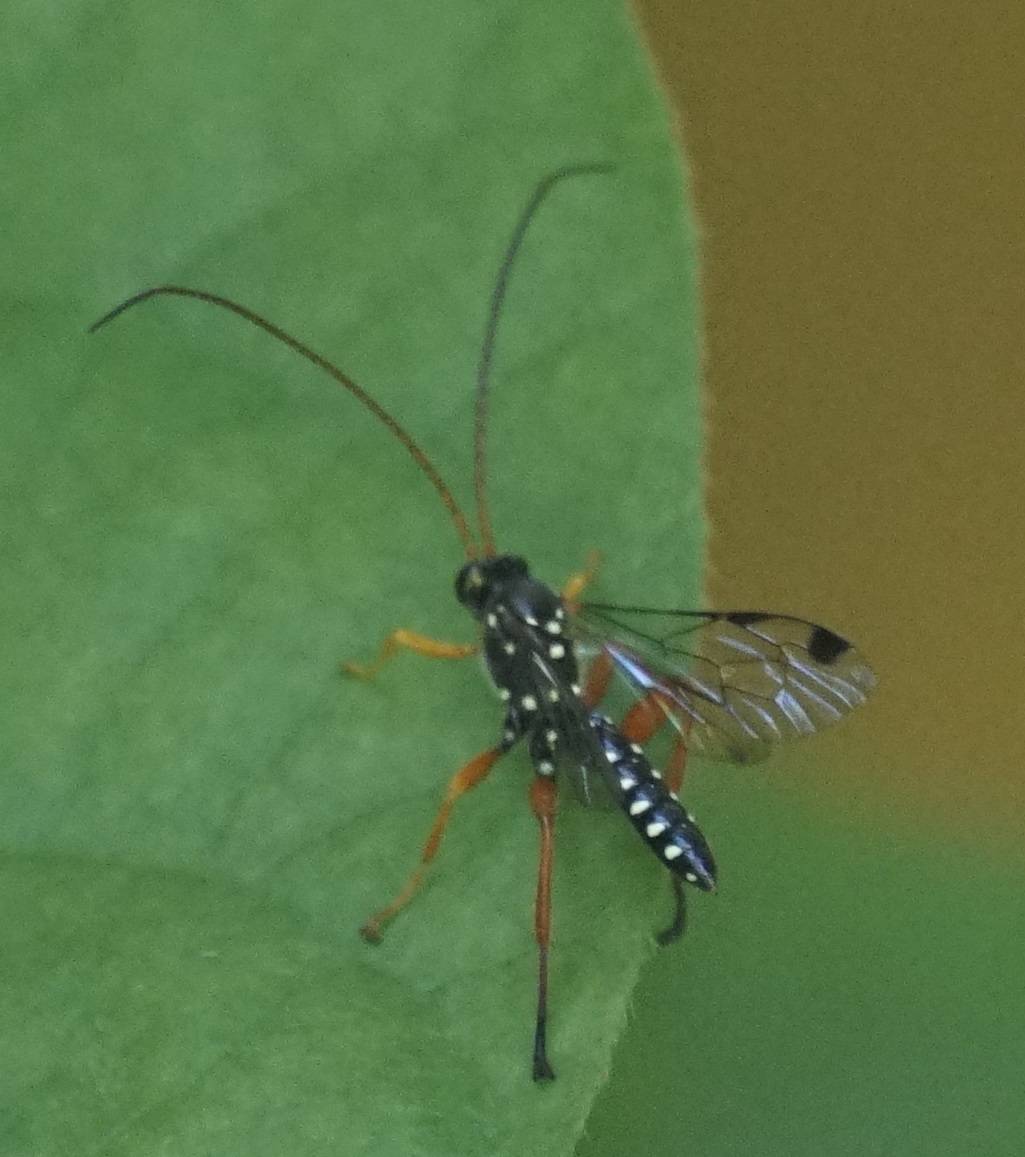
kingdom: Animalia
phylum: Arthropoda
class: Insecta
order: Hymenoptera
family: Ichneumonidae
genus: Echthromorpha
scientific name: Echthromorpha intricatoria
